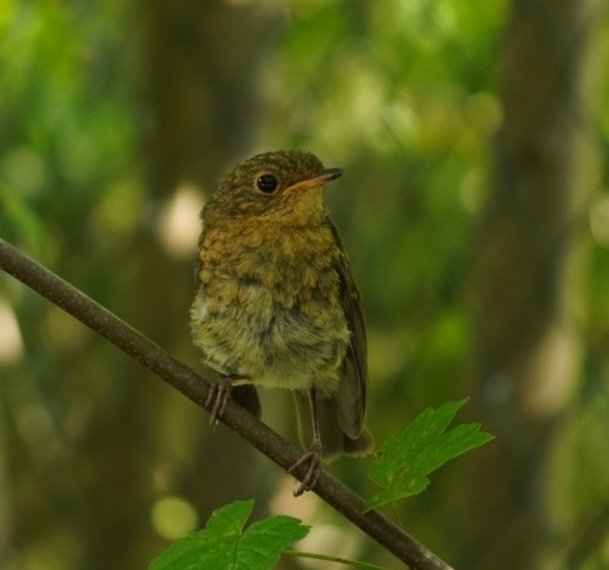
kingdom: Animalia
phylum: Chordata
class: Aves
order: Passeriformes
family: Muscicapidae
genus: Erithacus
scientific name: Erithacus rubecula
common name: European robin
